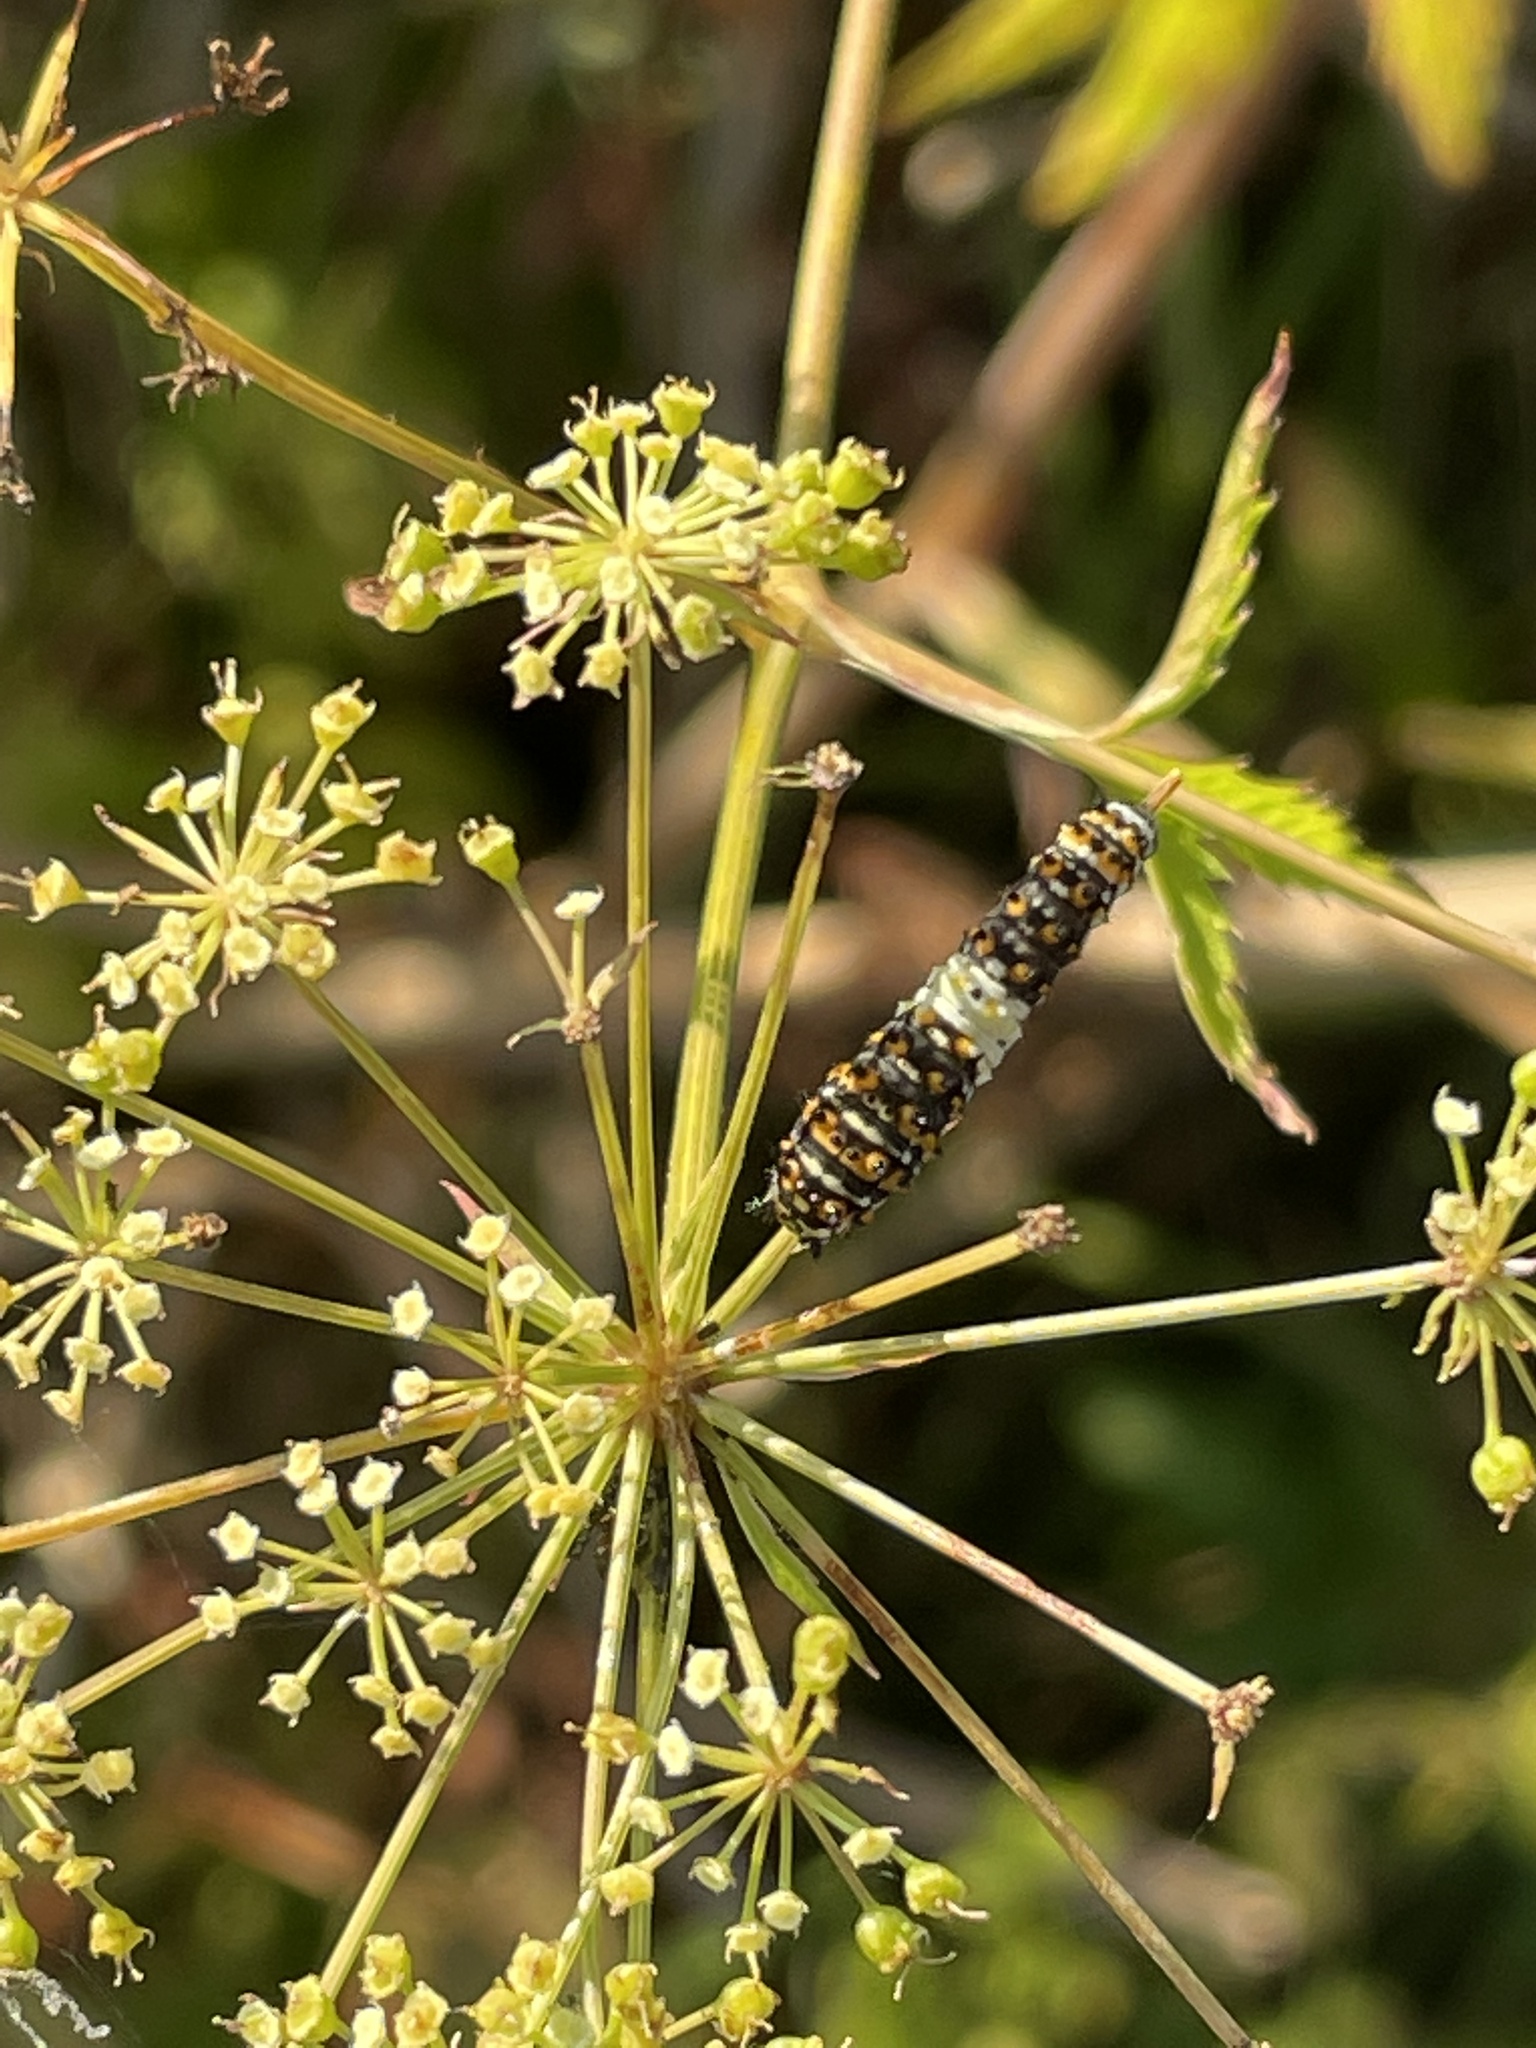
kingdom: Animalia
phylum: Arthropoda
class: Insecta
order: Lepidoptera
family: Papilionidae
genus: Papilio
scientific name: Papilio polyxenes
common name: Black swallowtail
